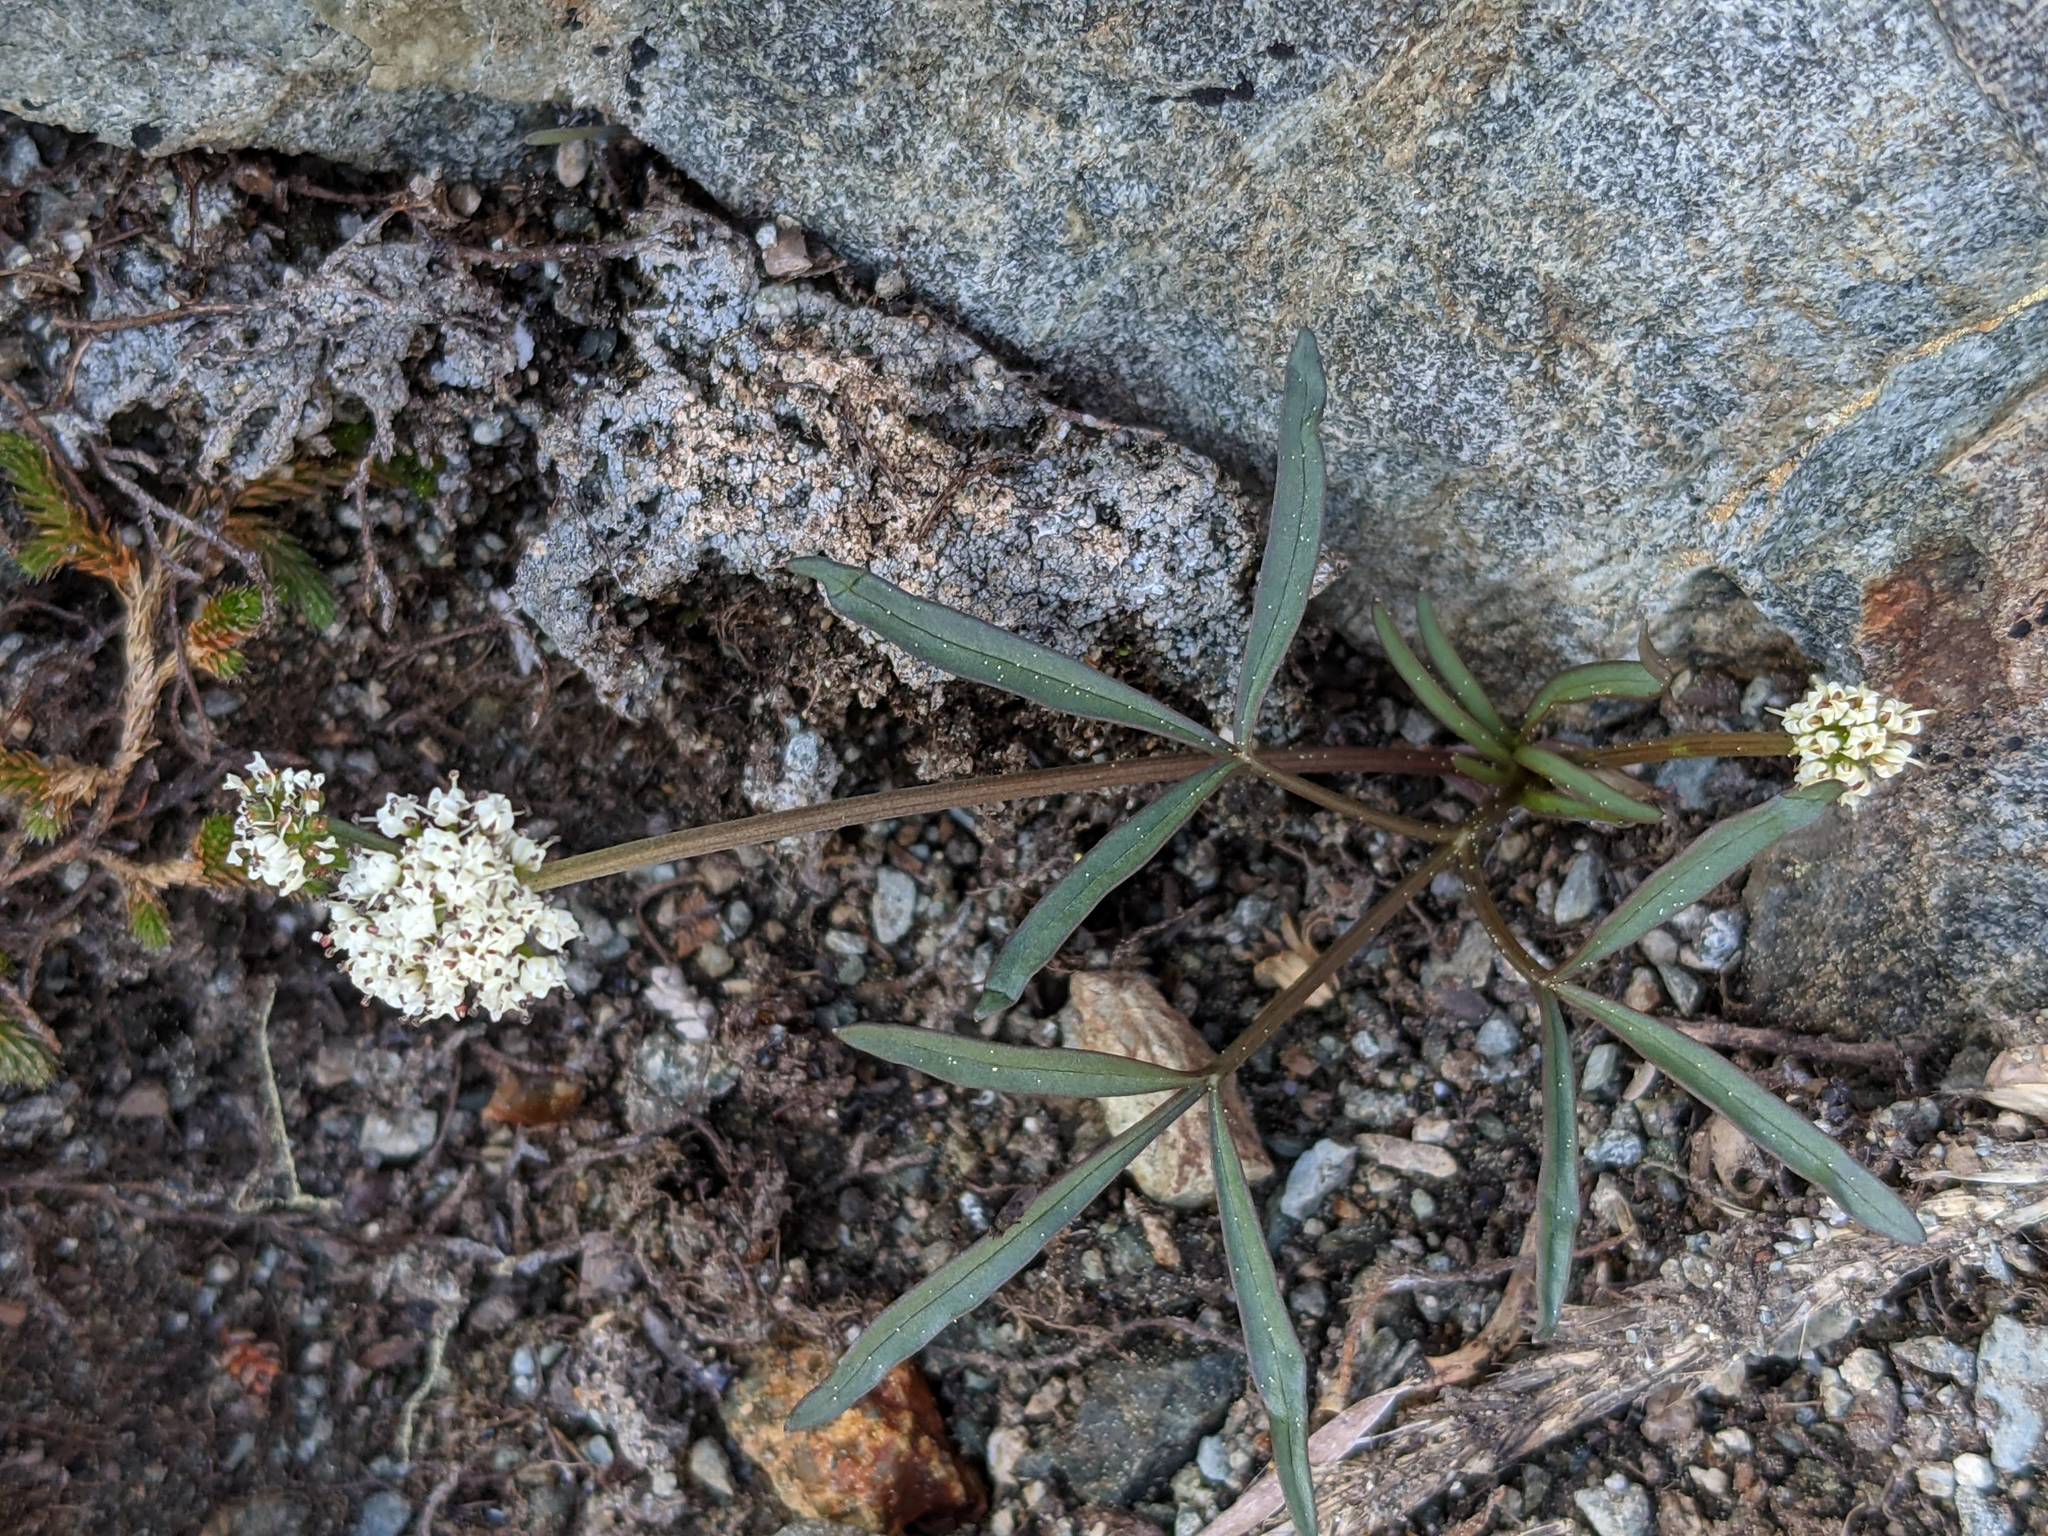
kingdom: Plantae
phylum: Tracheophyta
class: Magnoliopsida
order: Apiales
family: Apiaceae
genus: Lomatium
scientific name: Lomatium fusiformis
